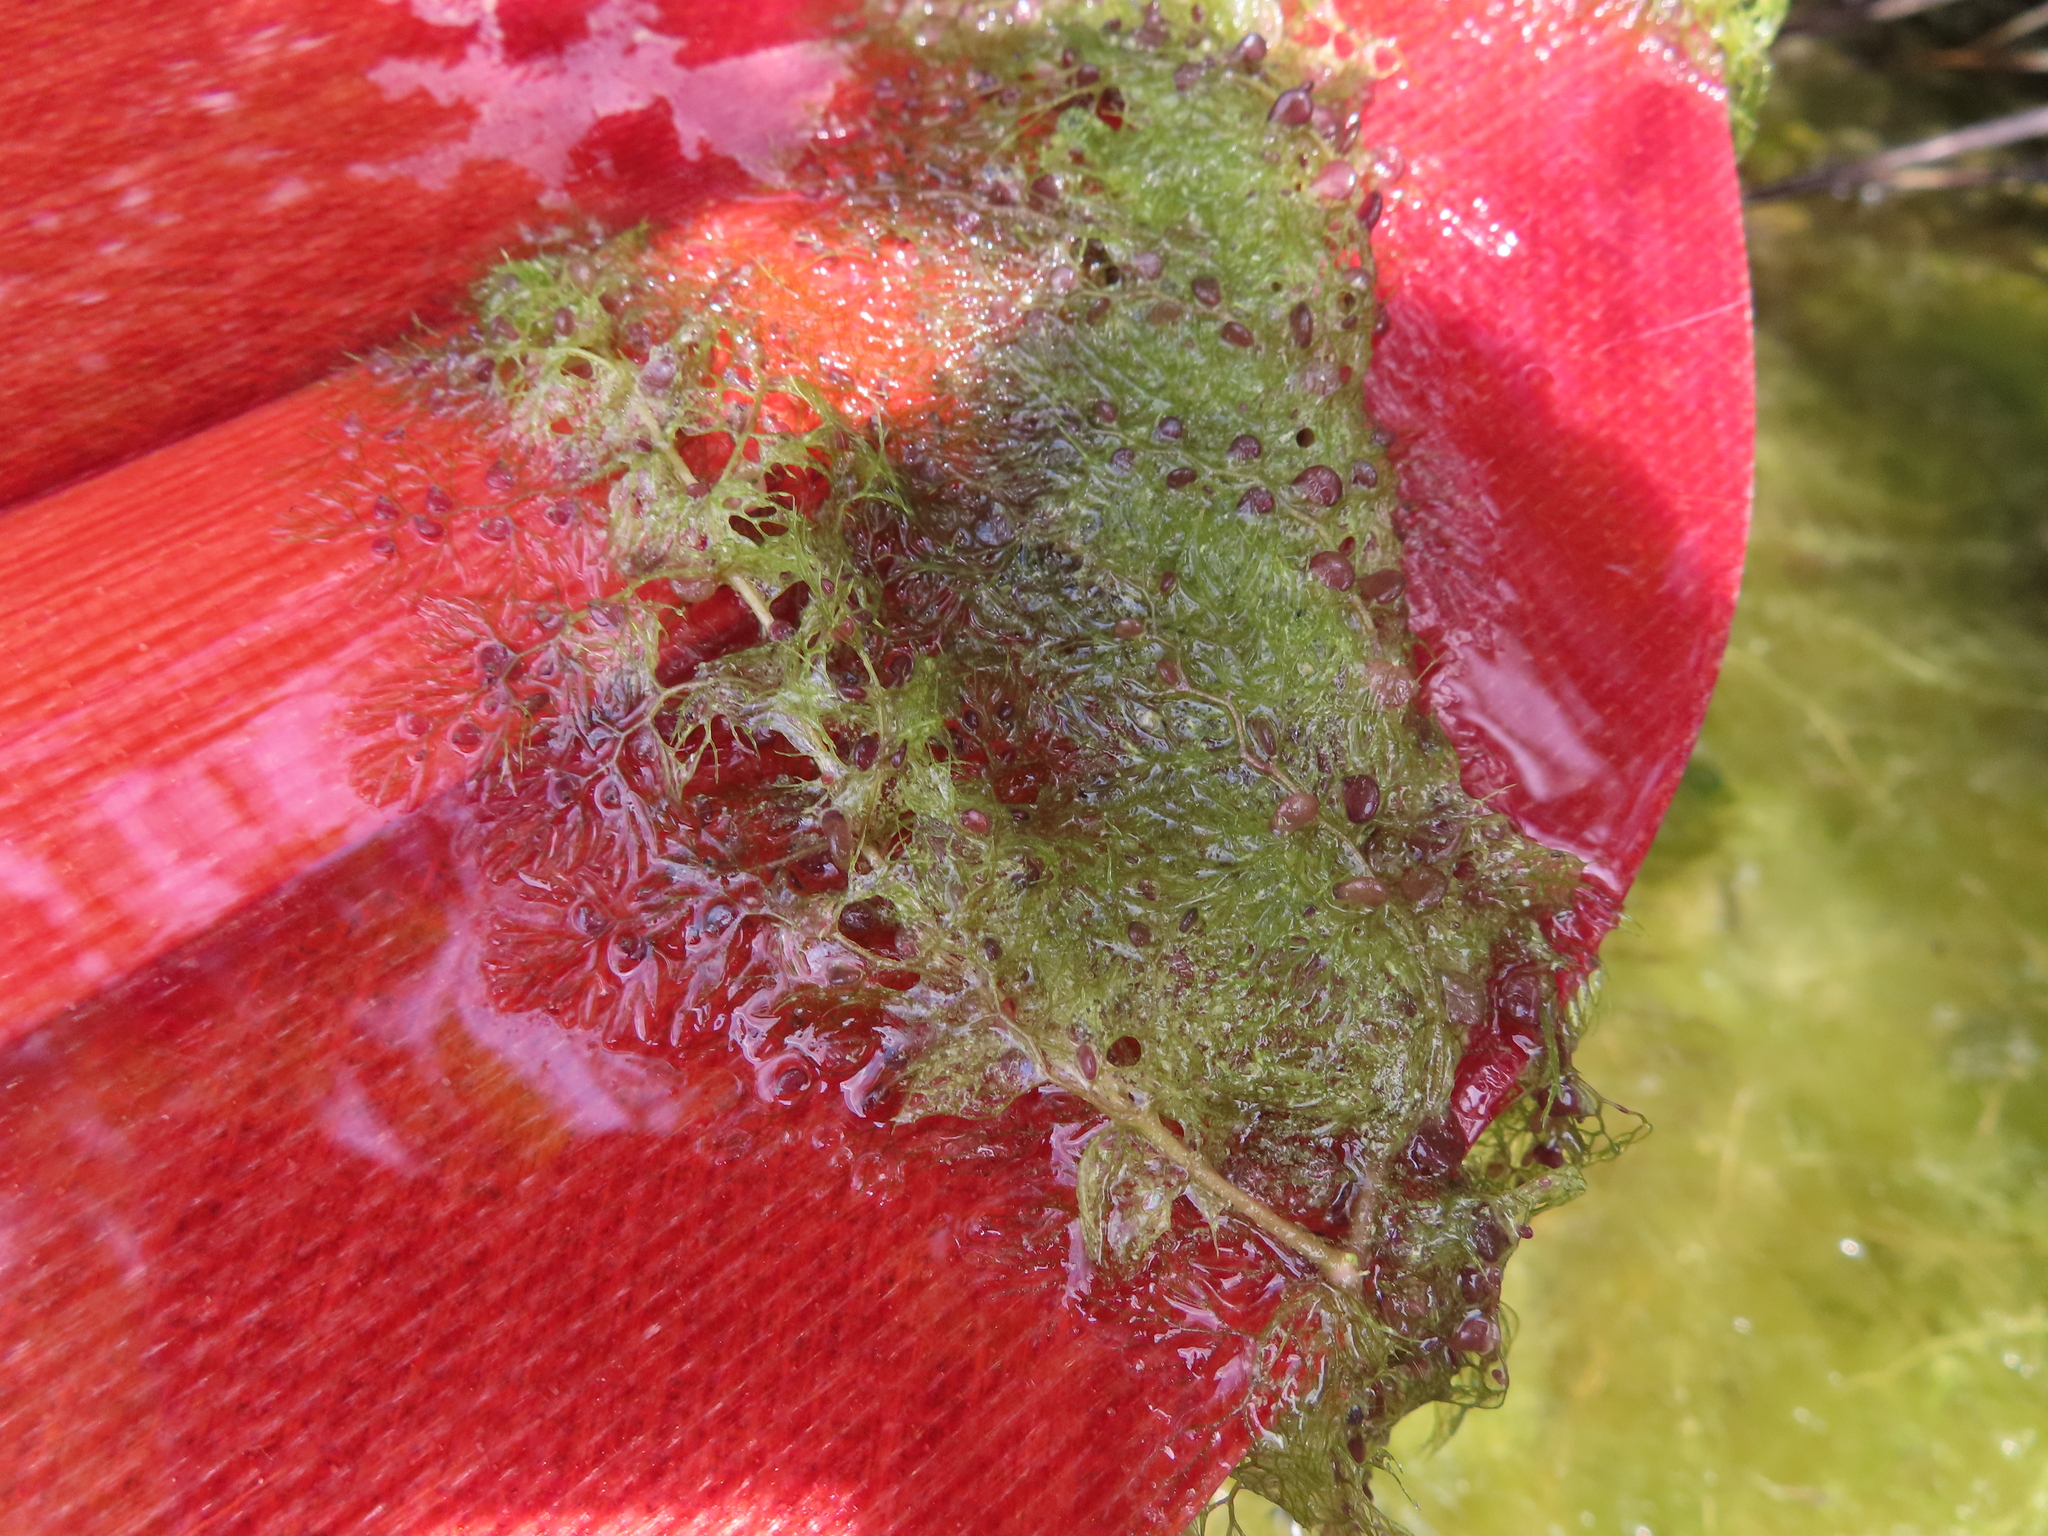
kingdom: Plantae
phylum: Tracheophyta
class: Magnoliopsida
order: Lamiales
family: Lentibulariaceae
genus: Utricularia
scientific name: Utricularia macrorhiza
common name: Common bladderwort
